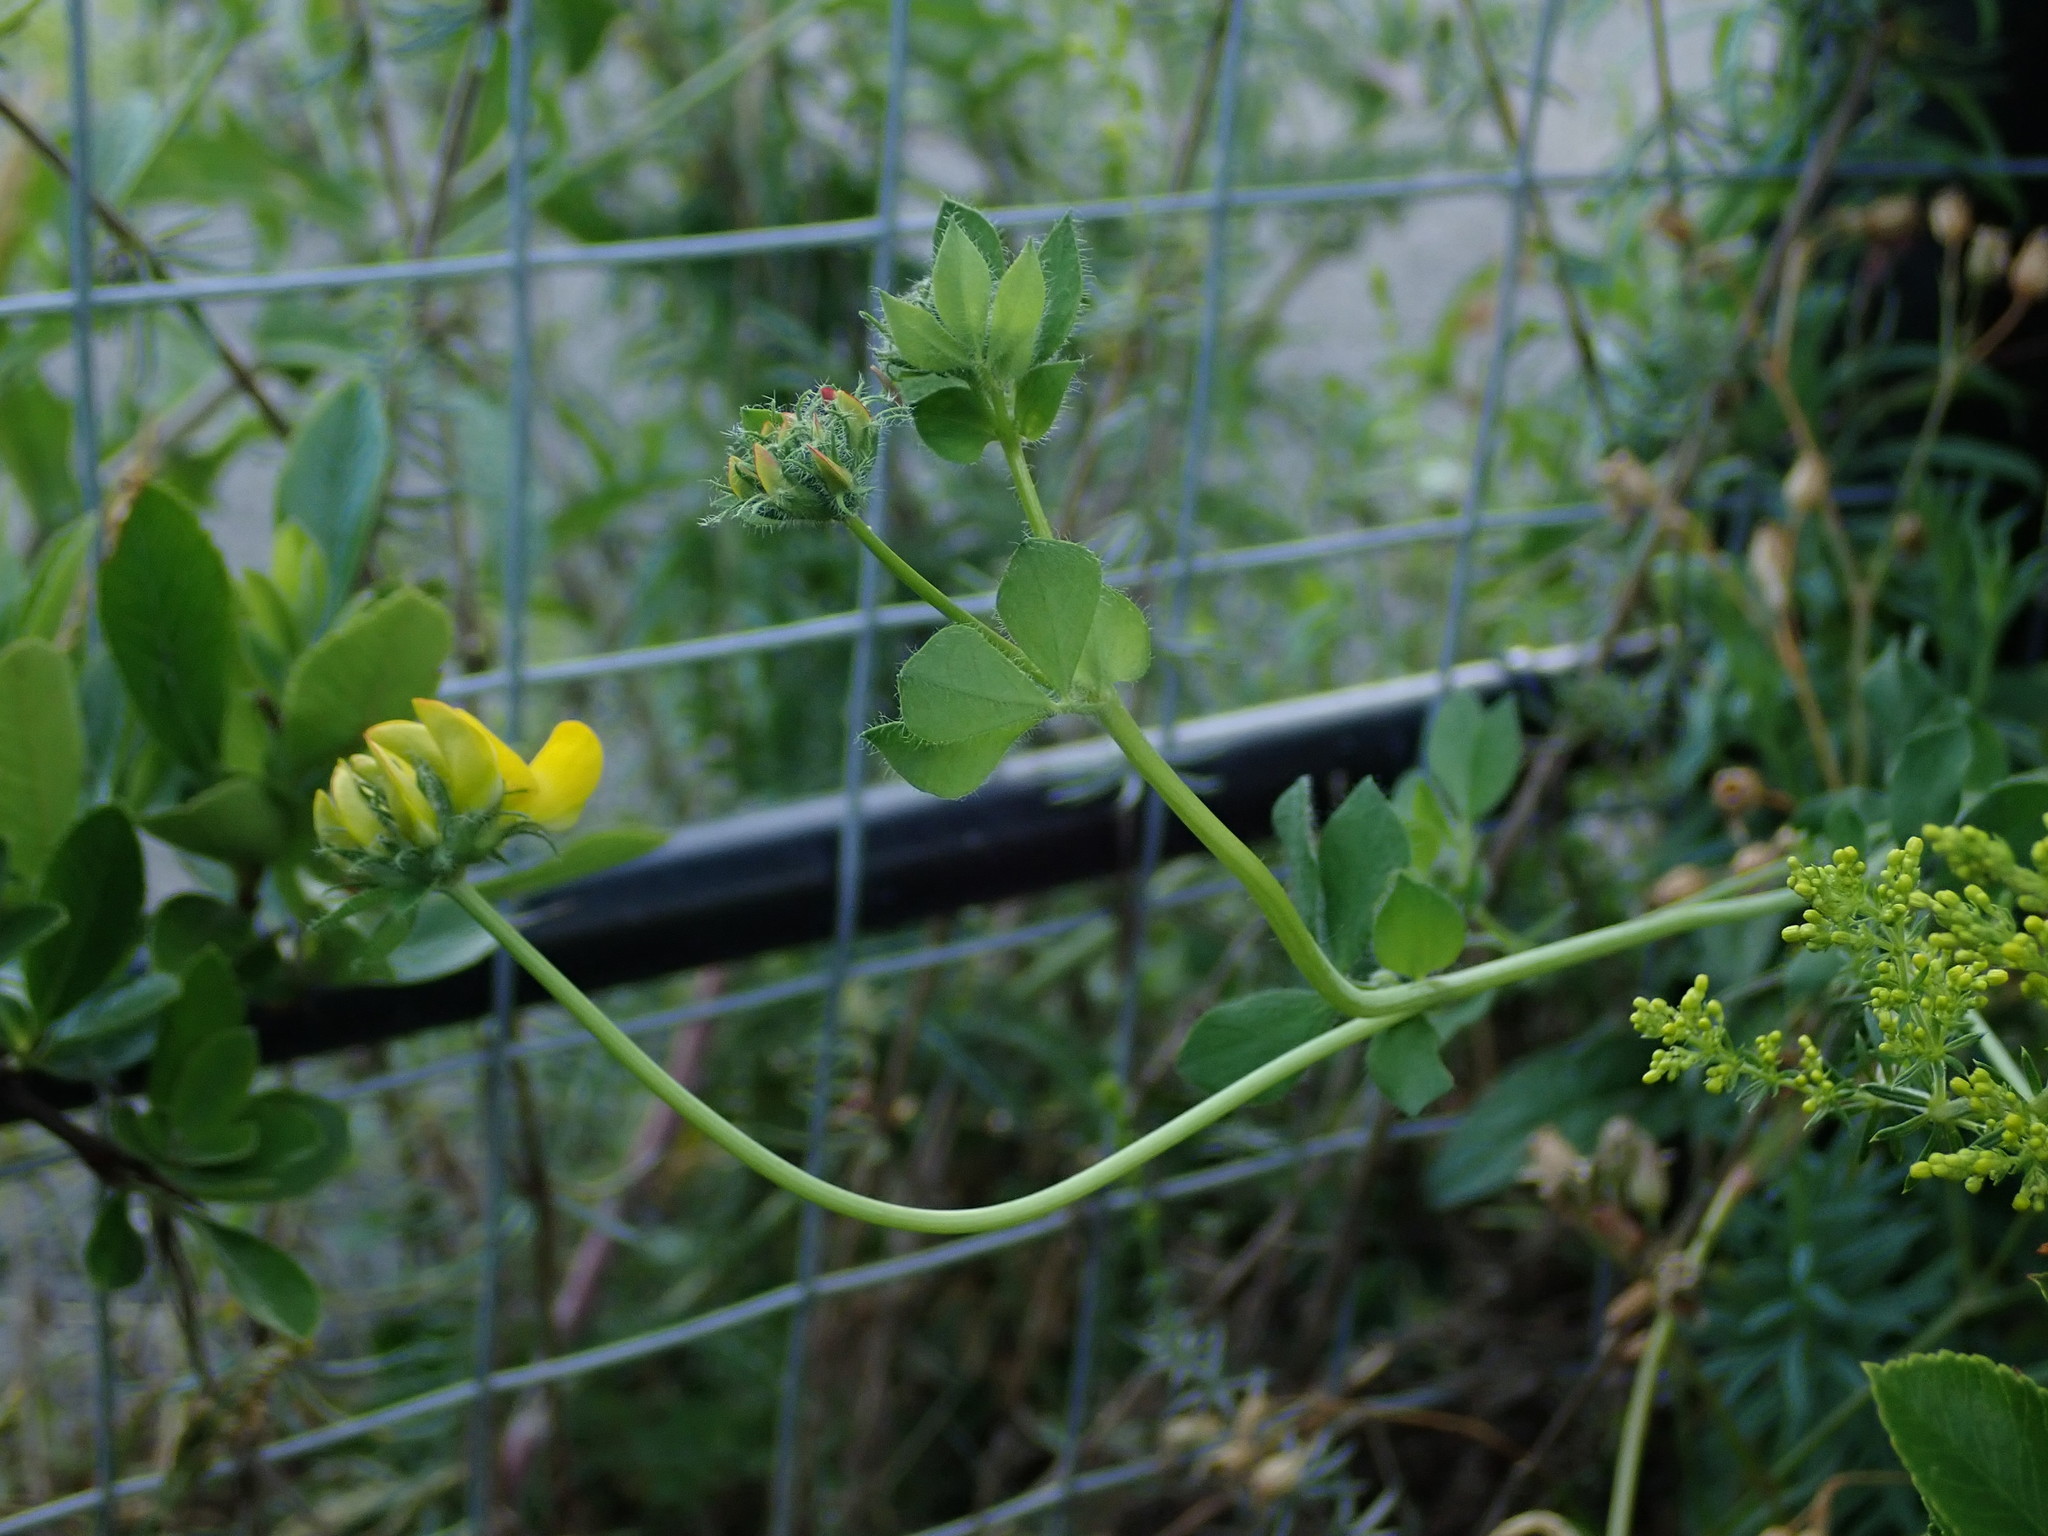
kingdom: Plantae
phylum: Tracheophyta
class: Magnoliopsida
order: Fabales
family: Fabaceae
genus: Lotus
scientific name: Lotus pedunculatus
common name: Greater birdsfoot-trefoil
